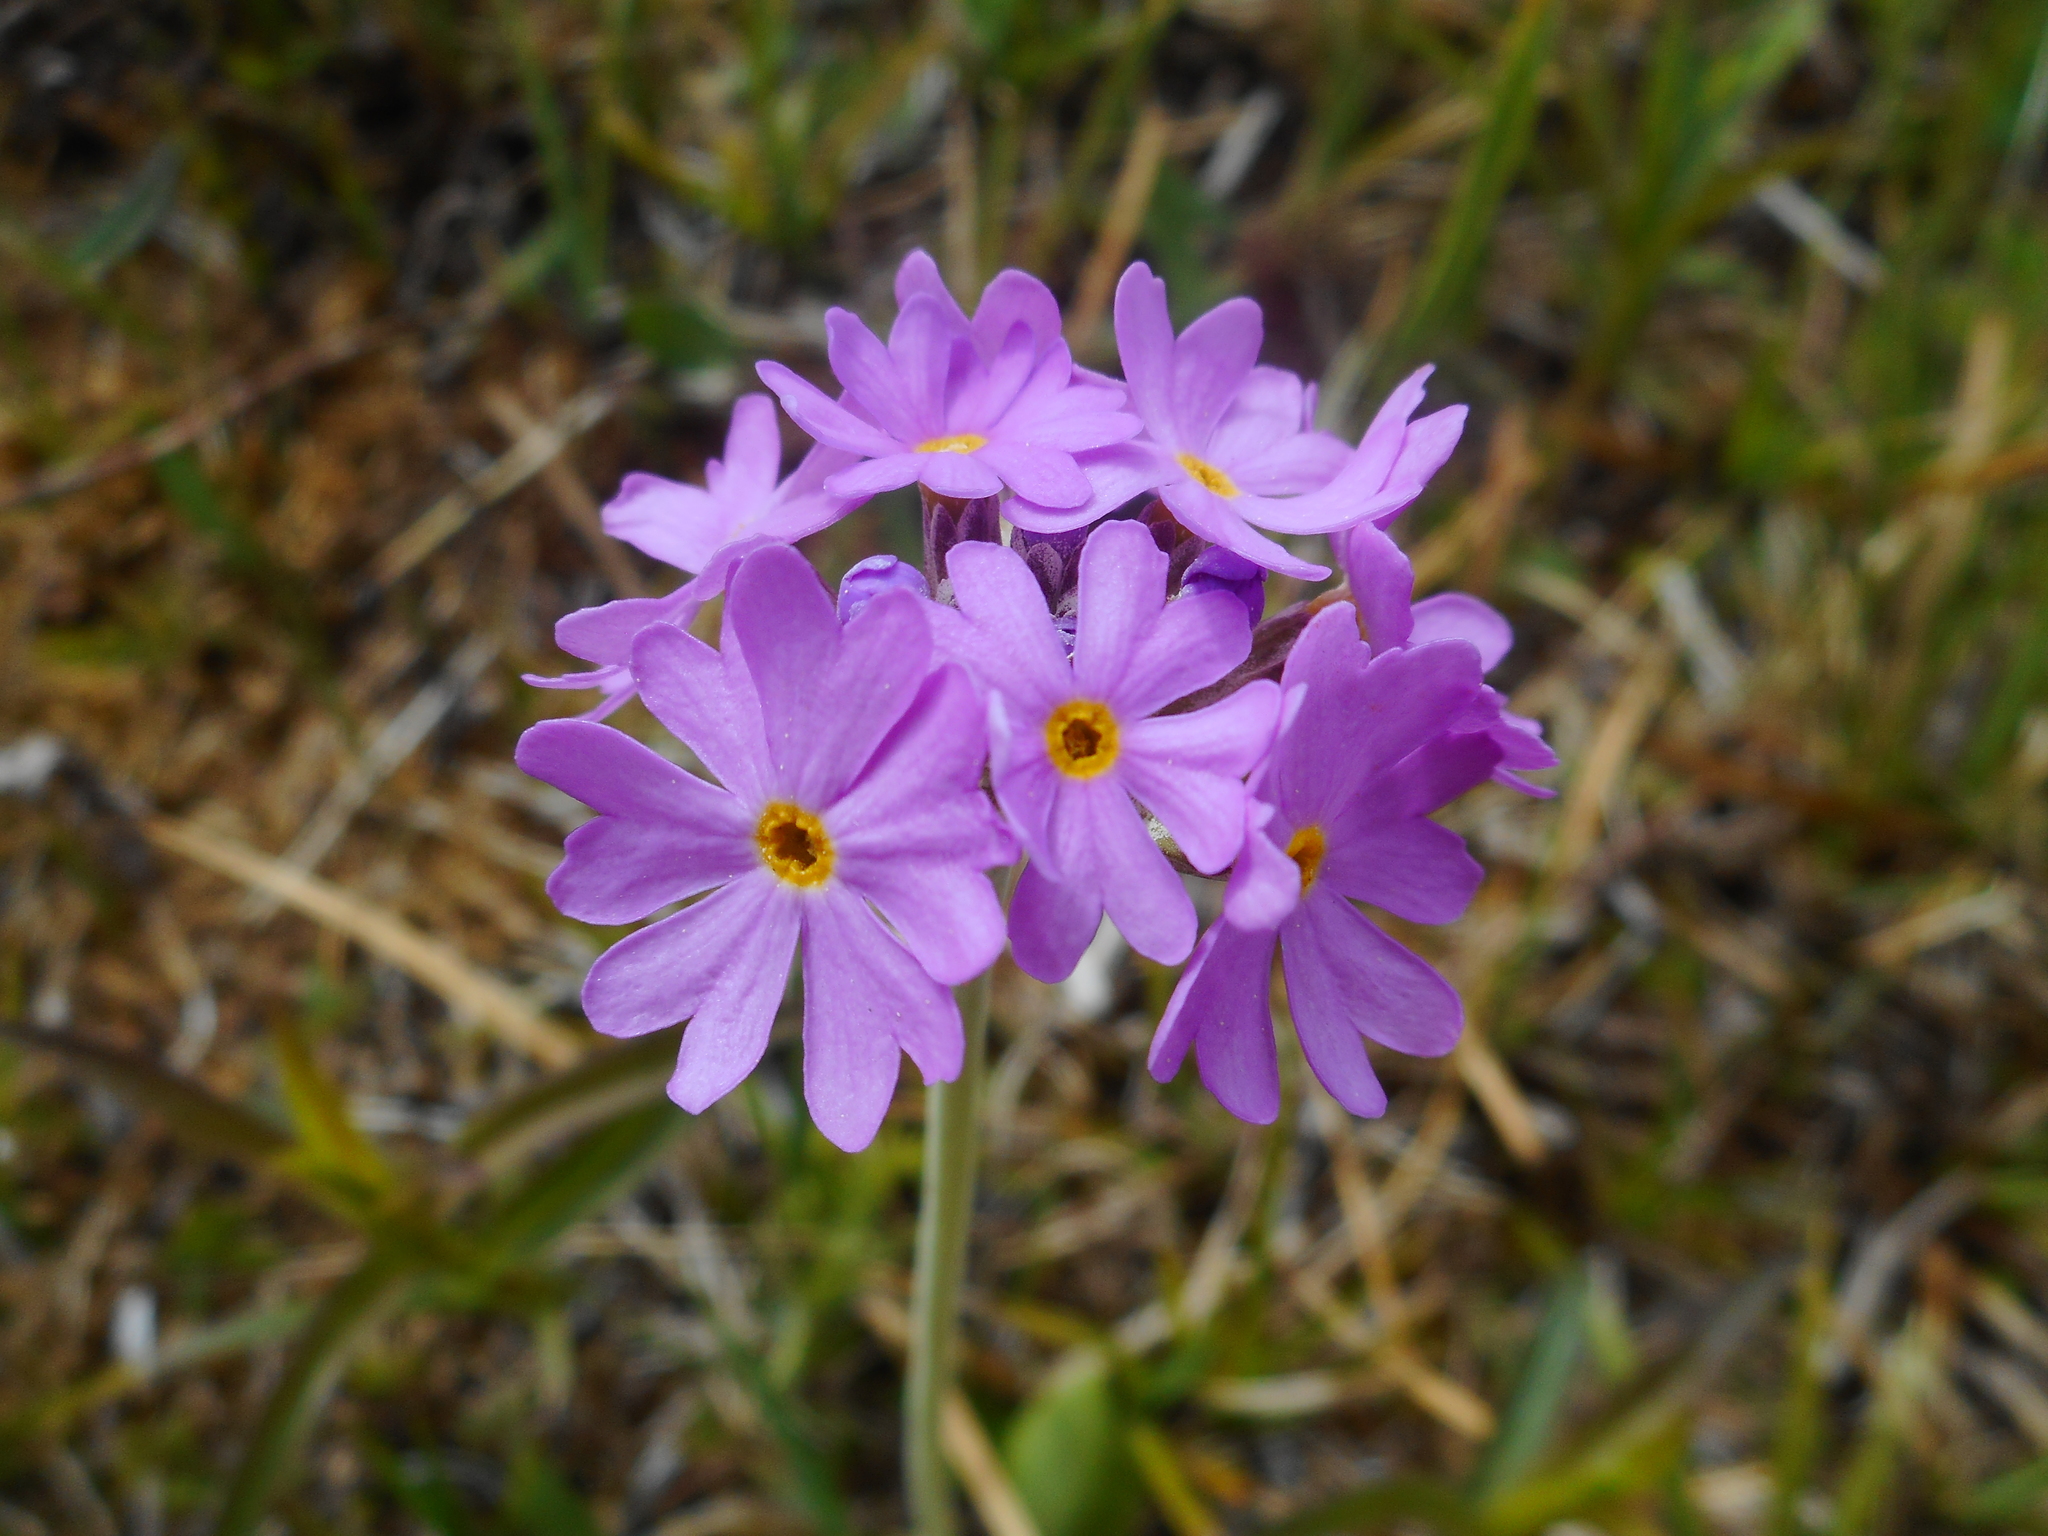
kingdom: Plantae
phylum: Tracheophyta
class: Magnoliopsida
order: Ericales
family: Primulaceae
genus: Primula
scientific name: Primula farinosa
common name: Bird's-eye primrose
